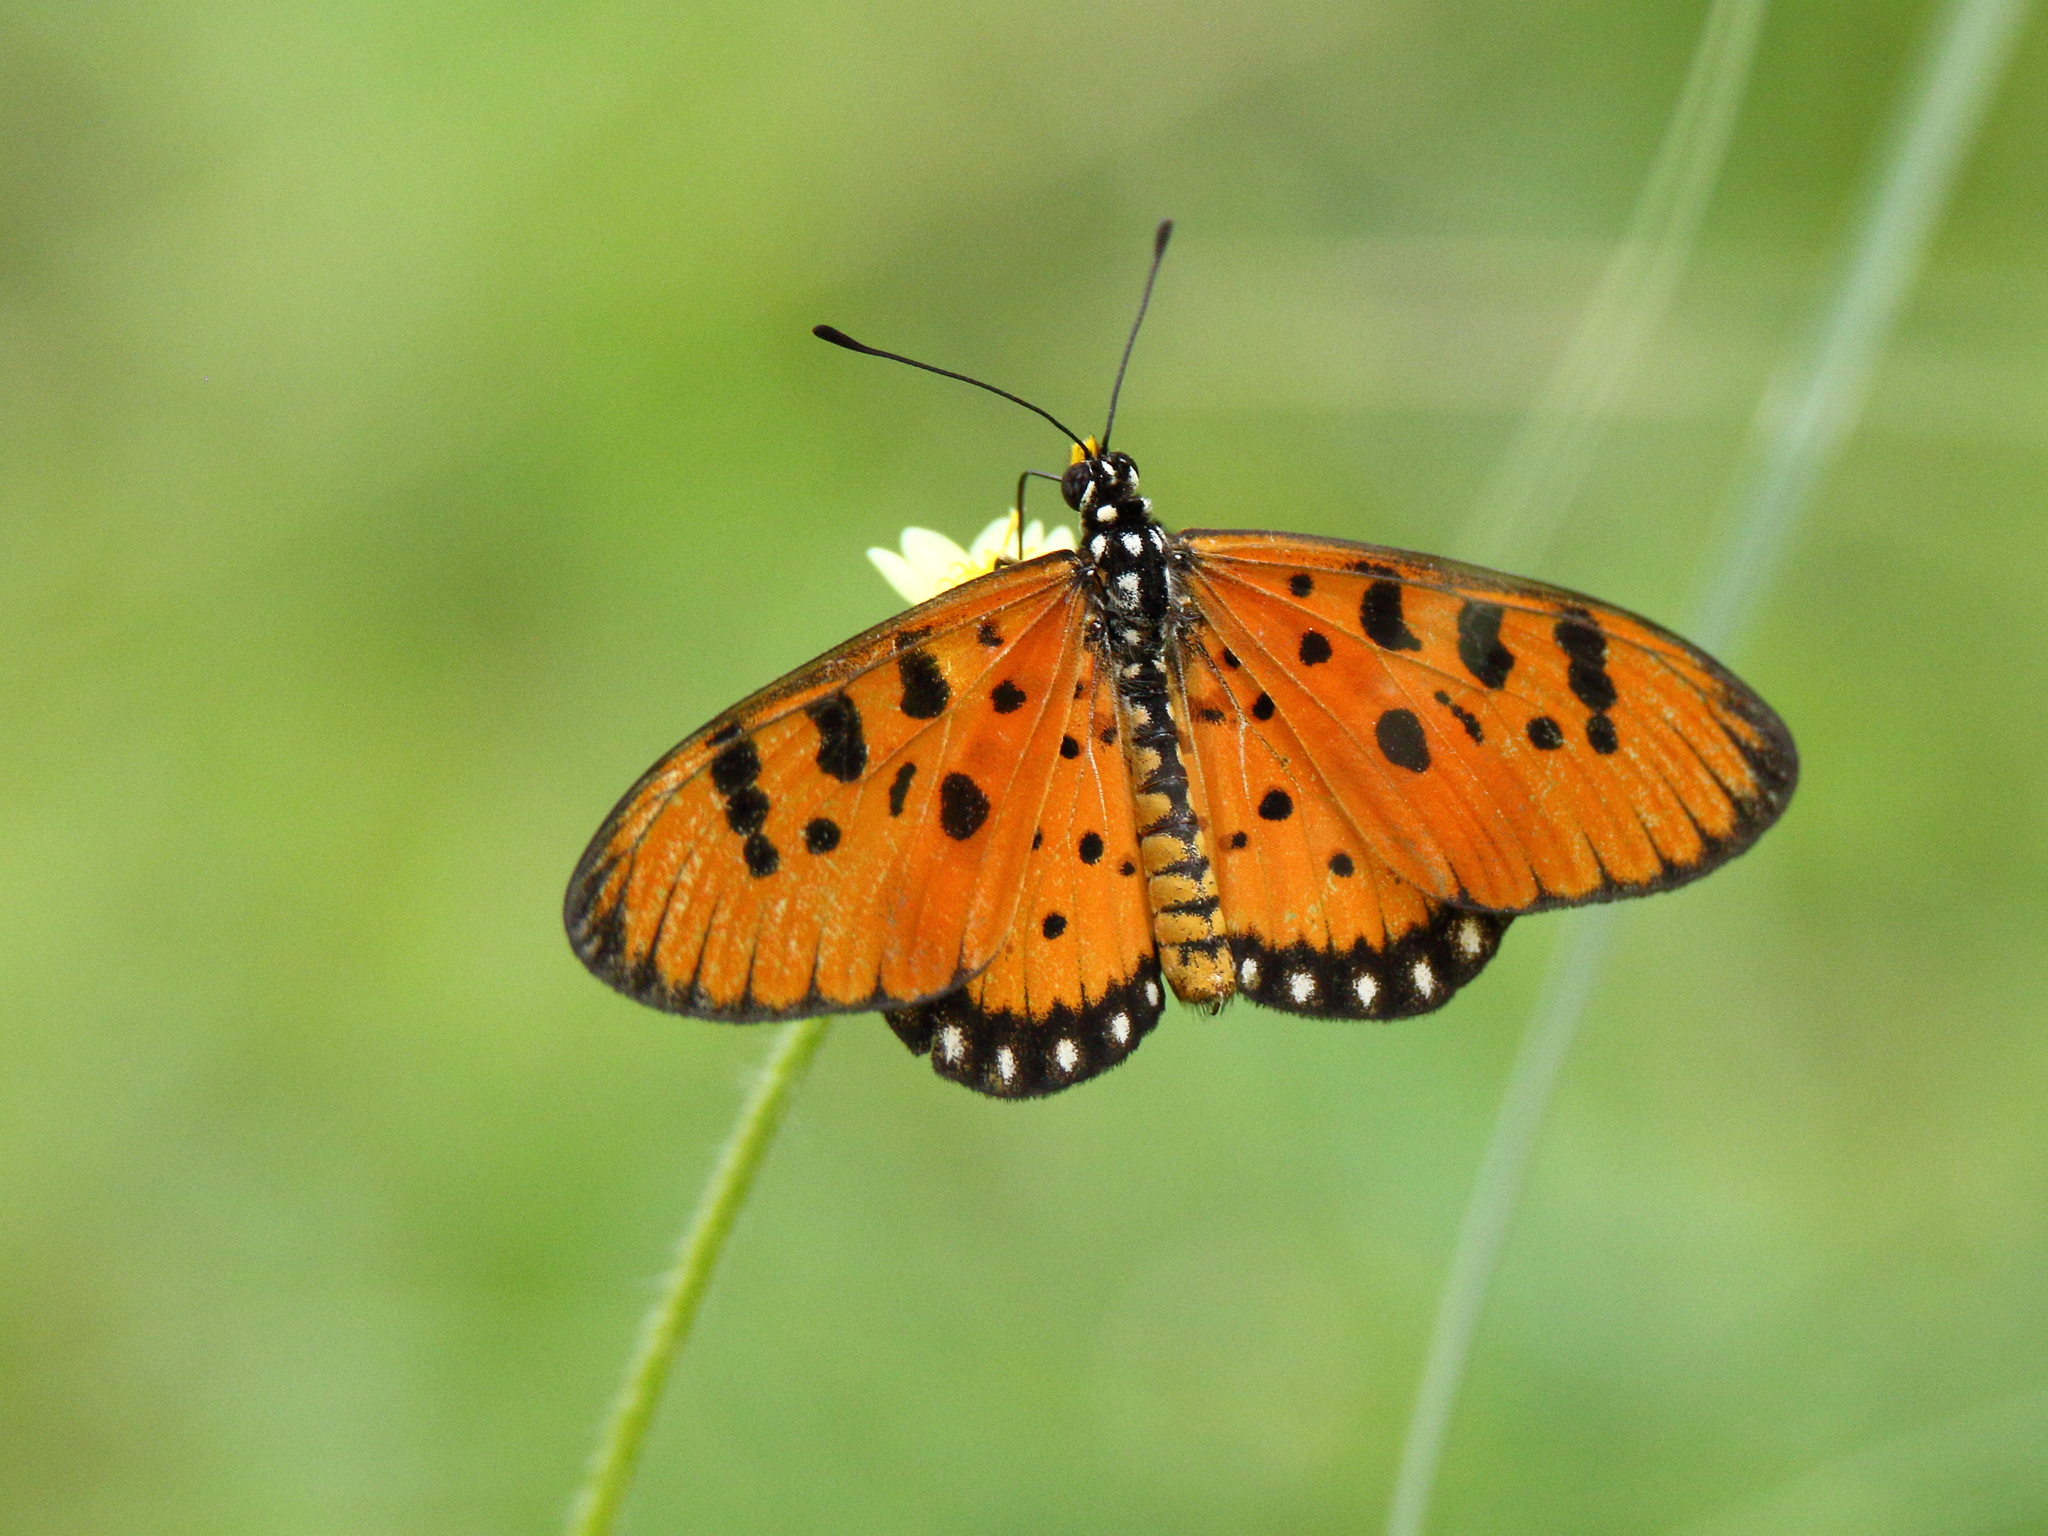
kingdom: Animalia
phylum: Arthropoda
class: Insecta
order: Lepidoptera
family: Nymphalidae
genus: Acraea
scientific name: Acraea terpsicore
